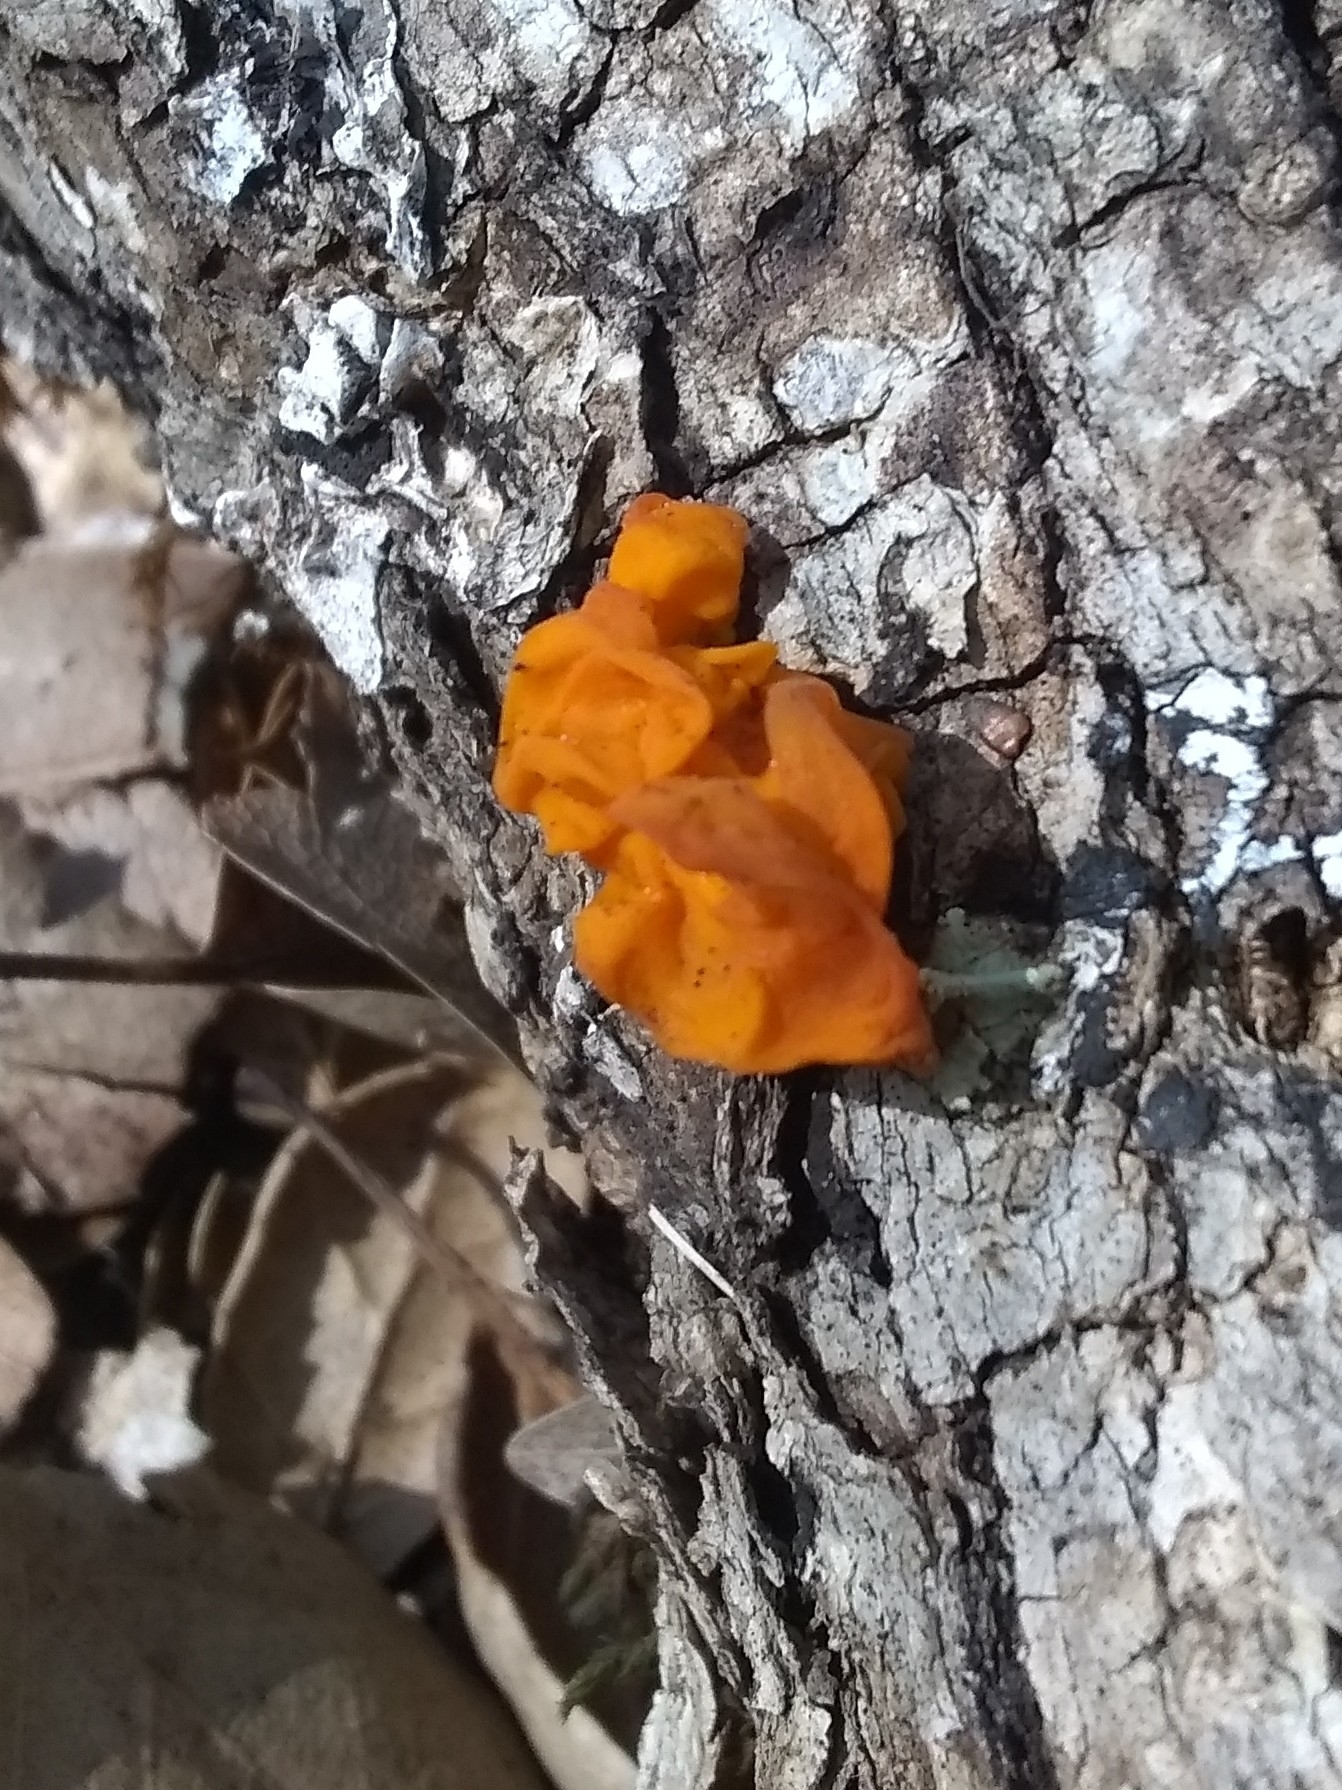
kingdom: Fungi
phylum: Basidiomycota
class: Tremellomycetes
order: Tremellales
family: Tremellaceae
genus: Tremella
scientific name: Tremella mesenterica
